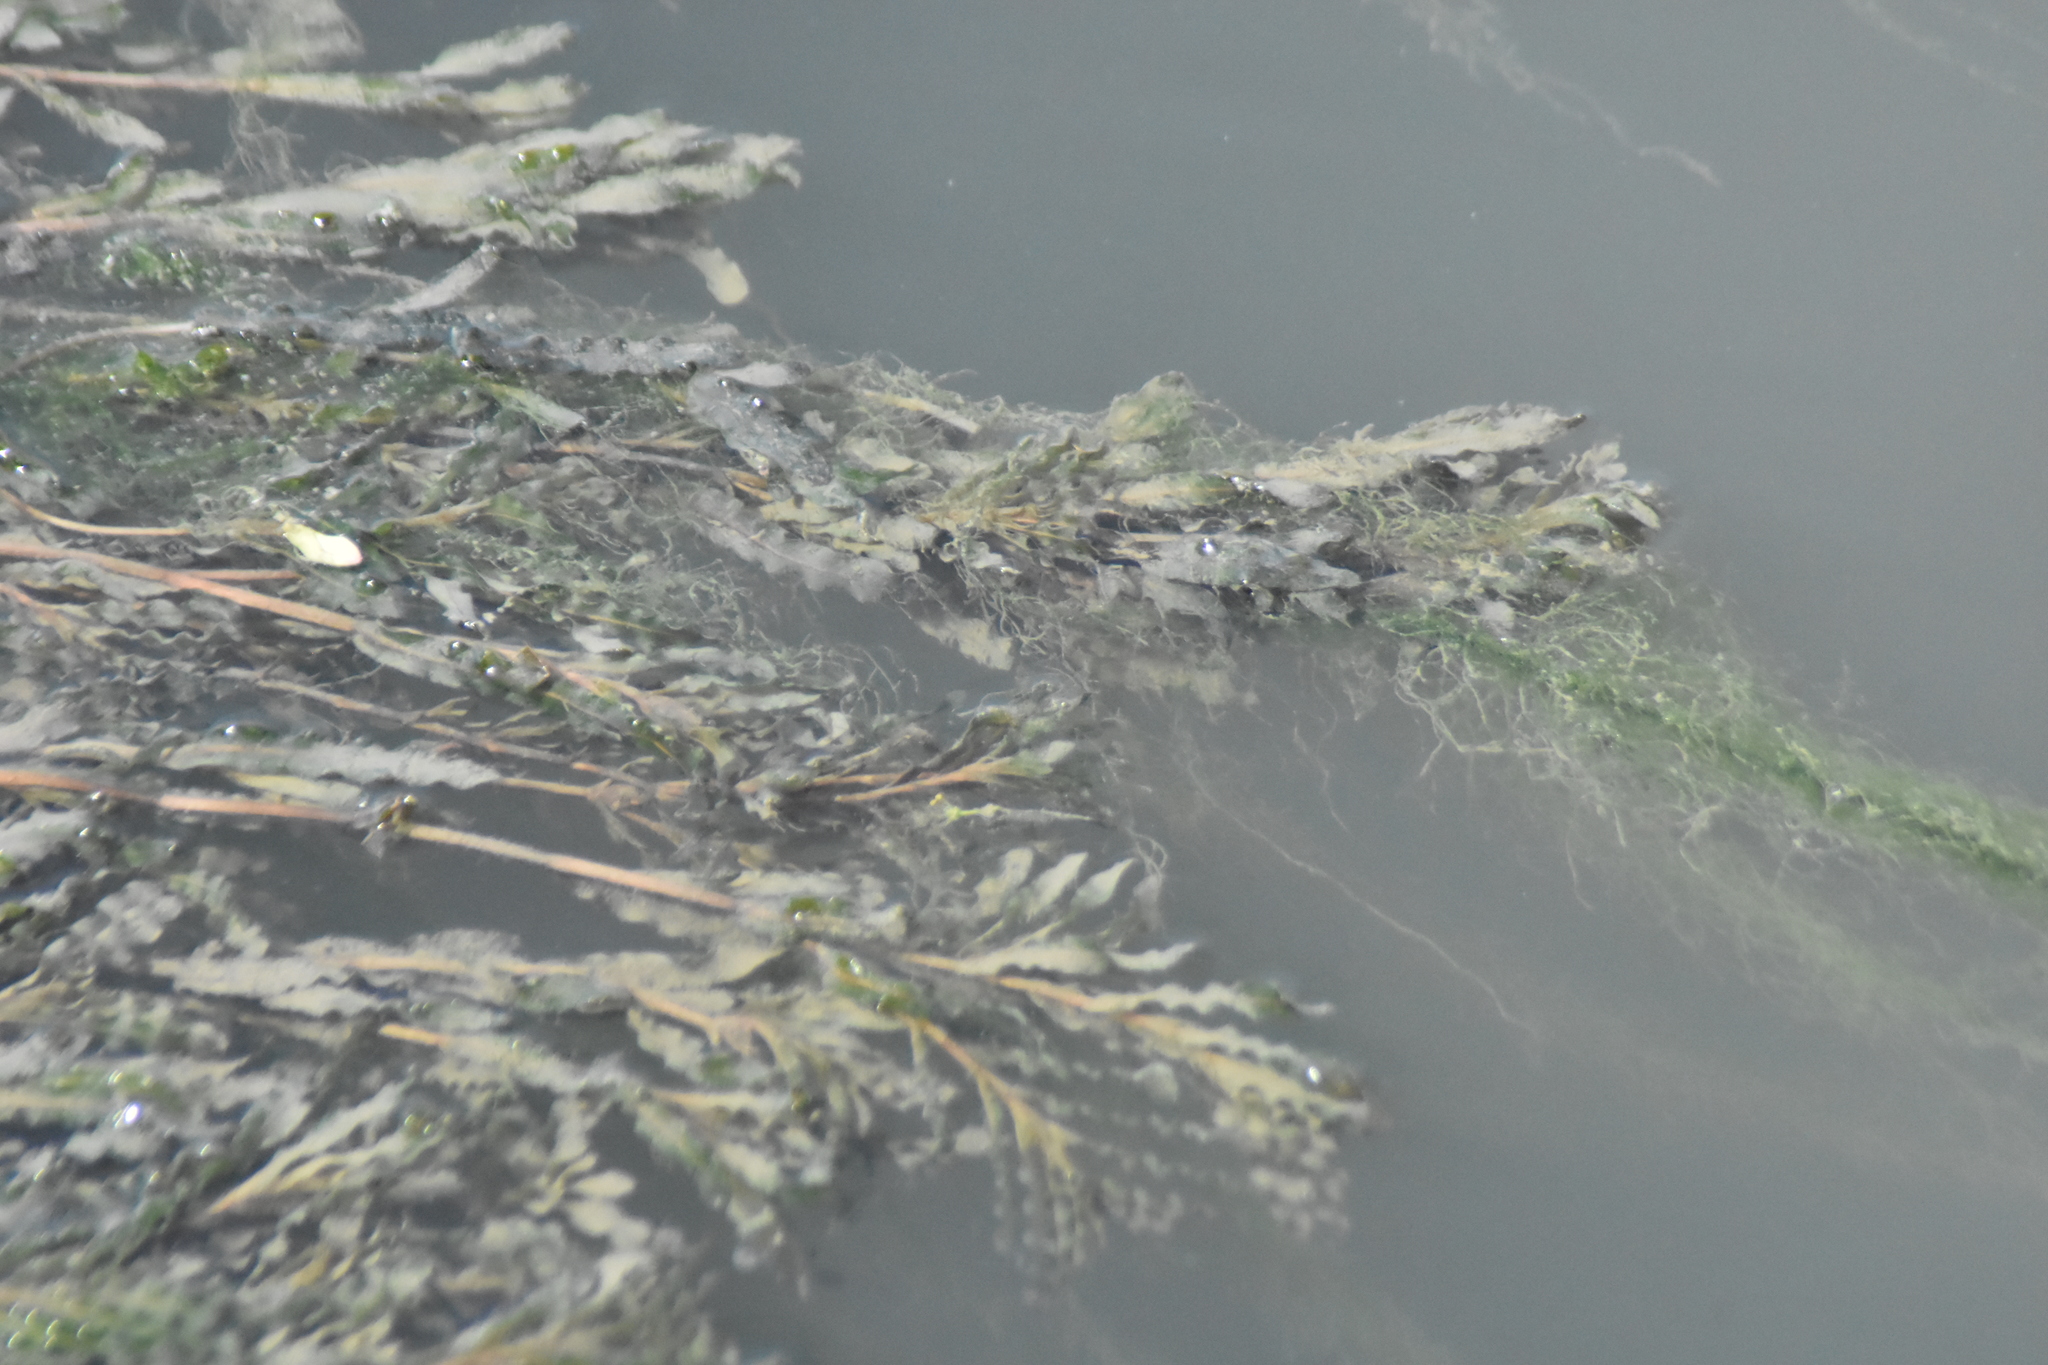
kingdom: Plantae
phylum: Tracheophyta
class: Liliopsida
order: Alismatales
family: Potamogetonaceae
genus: Potamogeton
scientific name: Potamogeton crispus
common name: Curled pondweed
